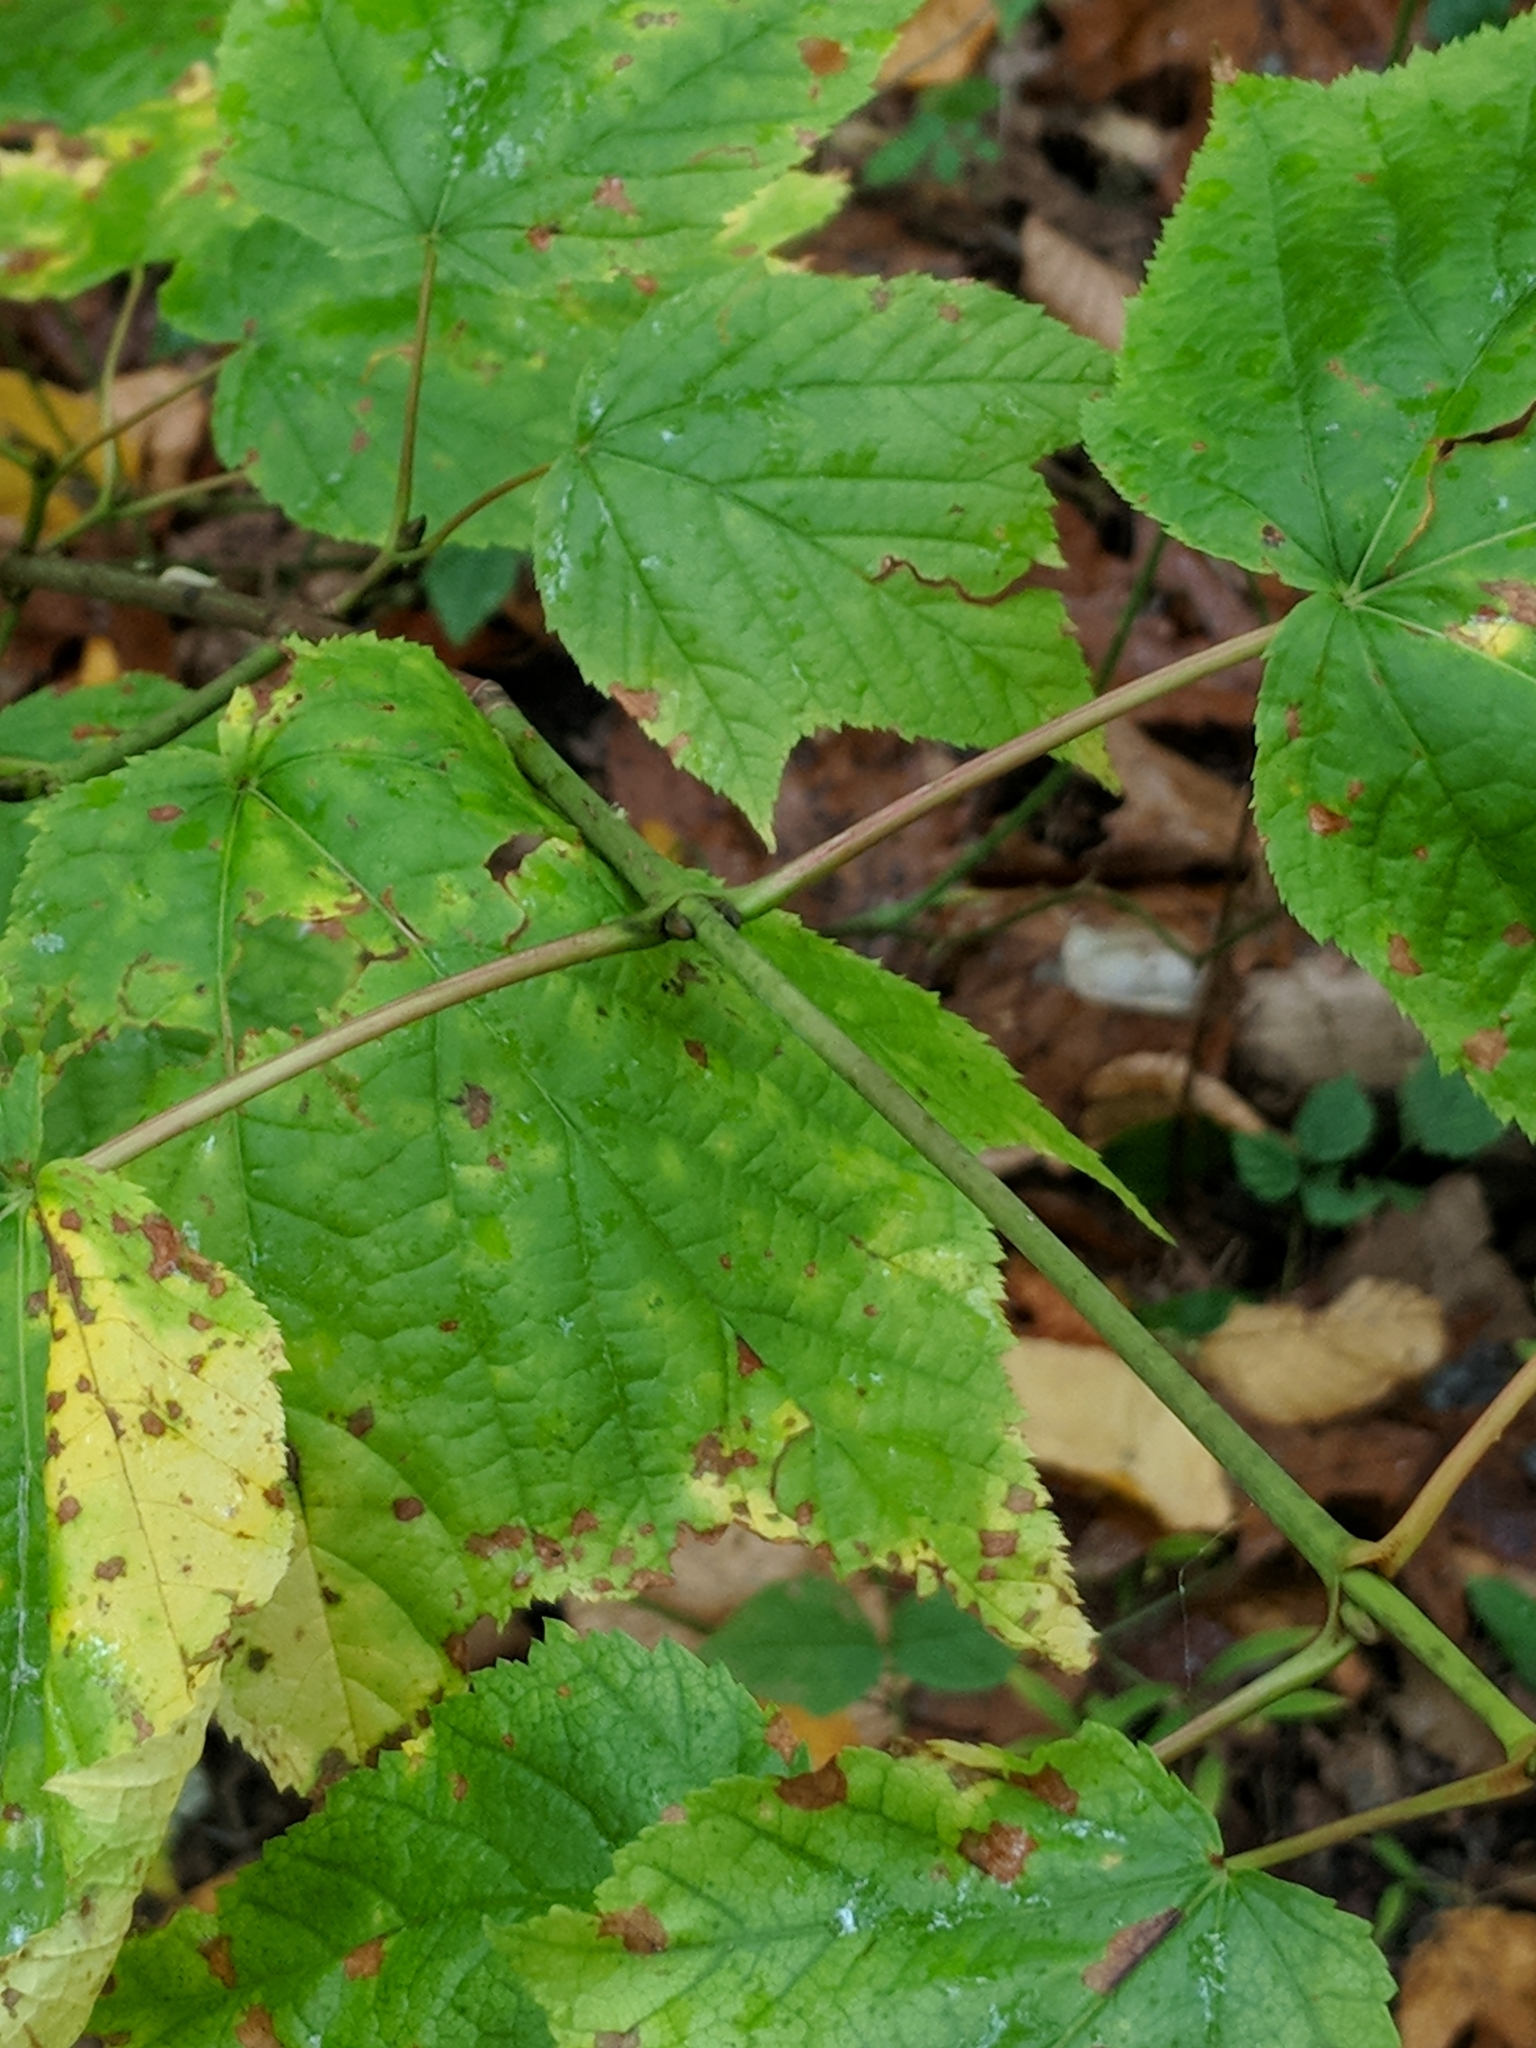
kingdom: Plantae
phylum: Tracheophyta
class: Magnoliopsida
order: Sapindales
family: Sapindaceae
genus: Acer
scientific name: Acer pensylvanicum
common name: Moosewood
